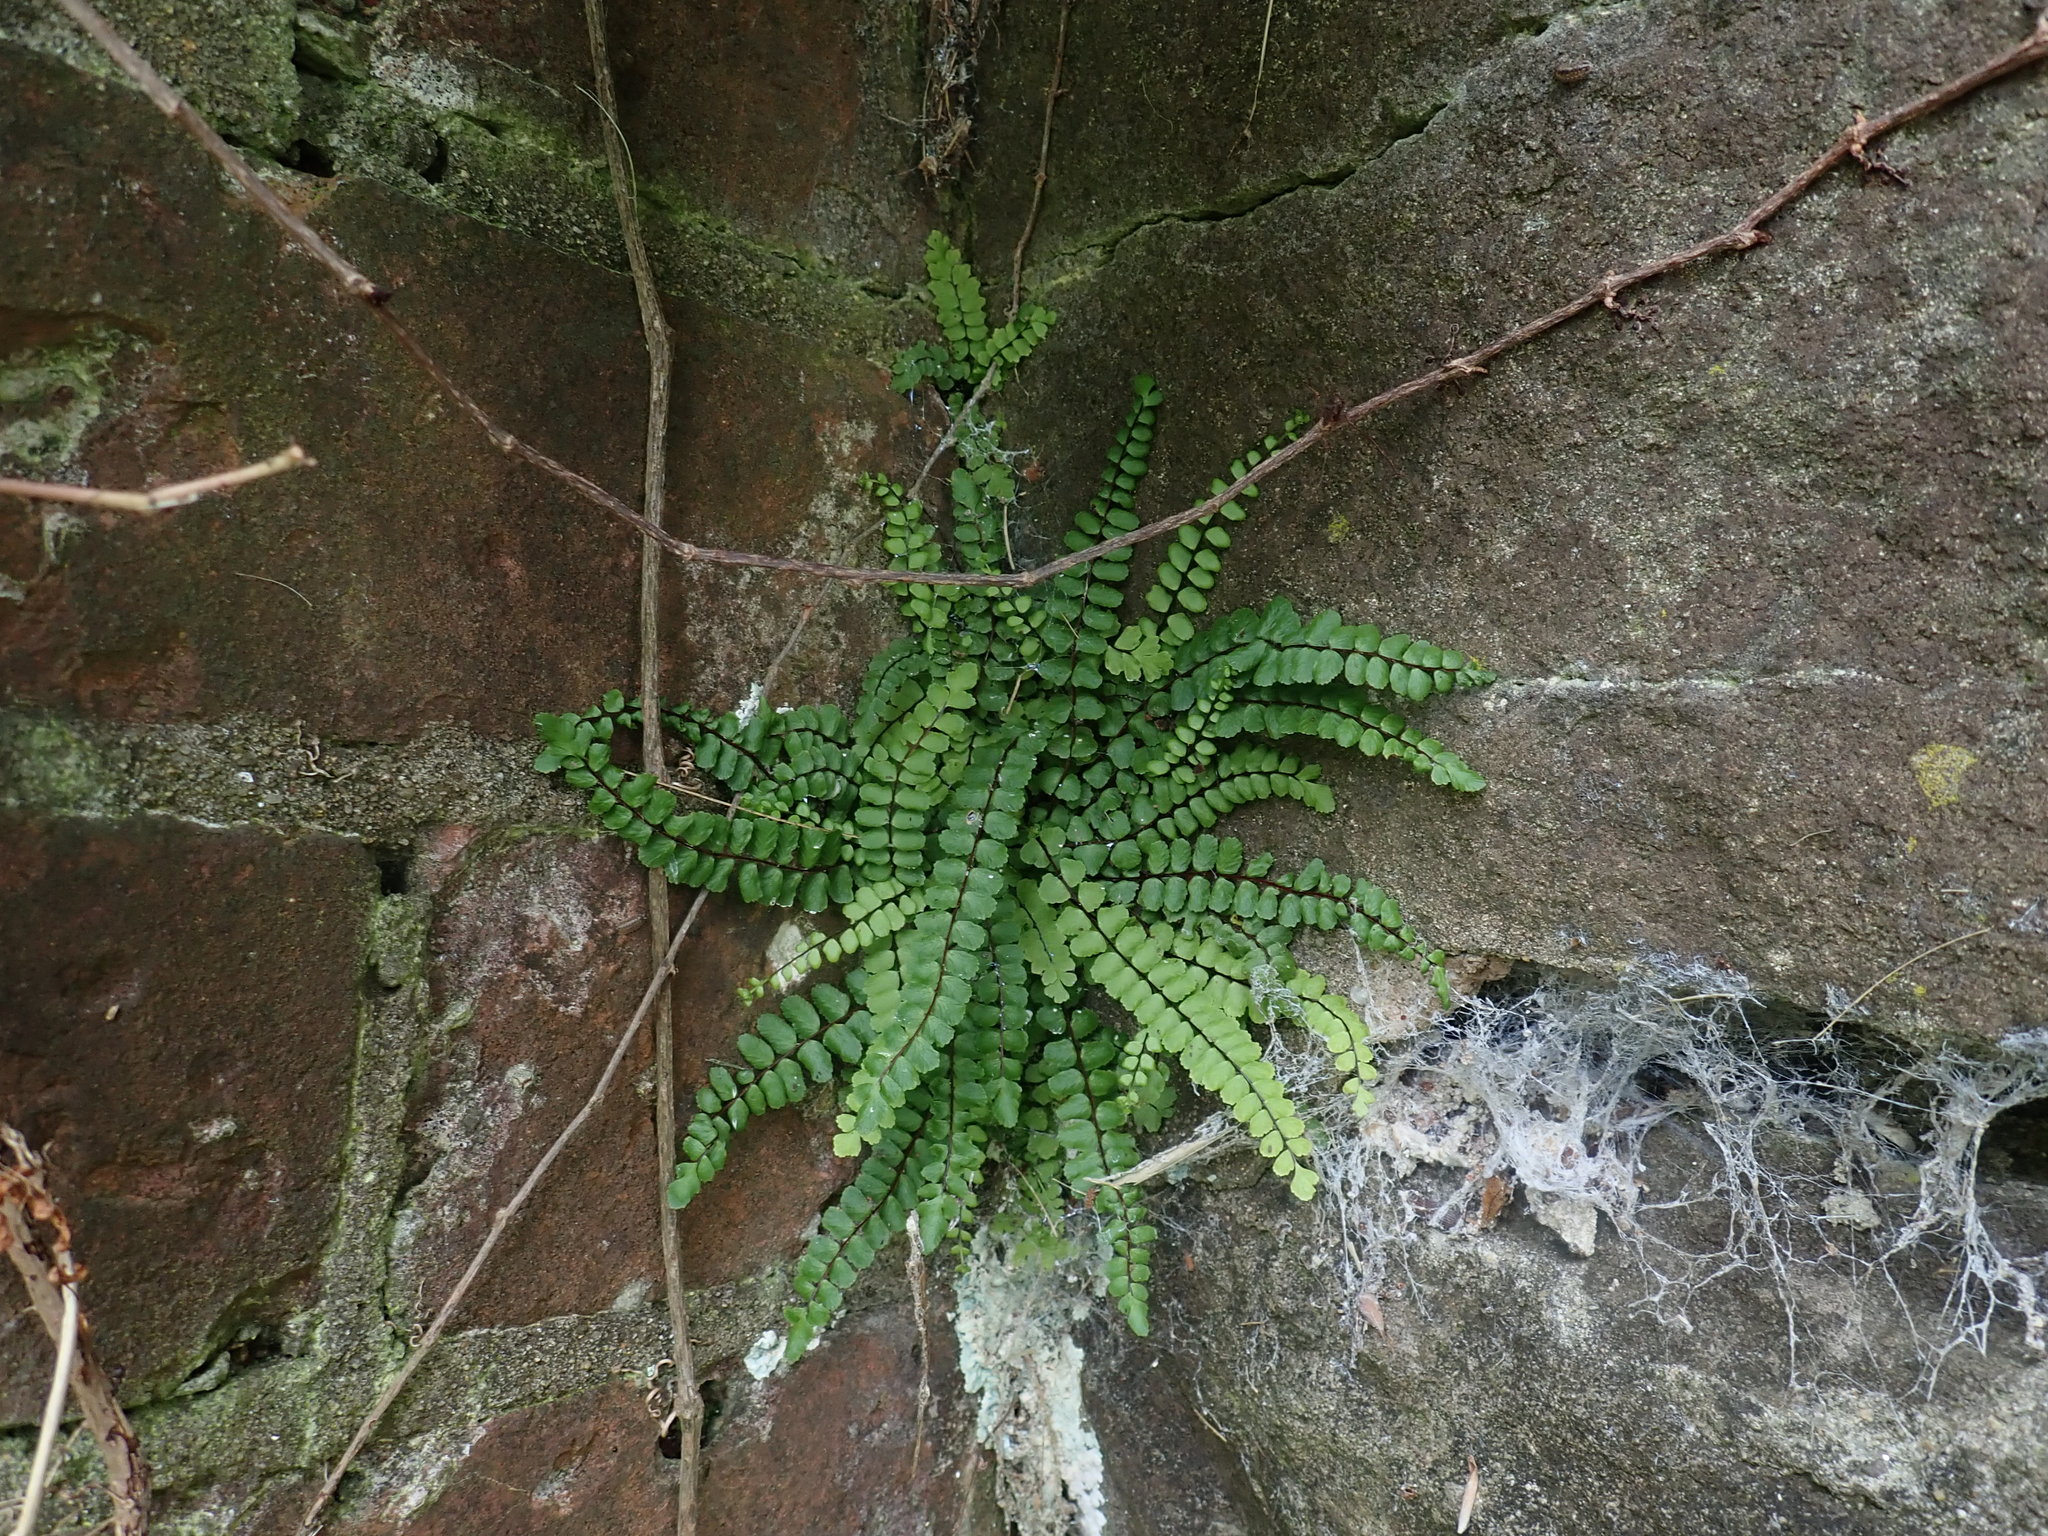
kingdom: Plantae
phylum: Tracheophyta
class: Polypodiopsida
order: Polypodiales
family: Aspleniaceae
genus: Asplenium
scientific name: Asplenium trichomanes
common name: Maidenhair spleenwort
